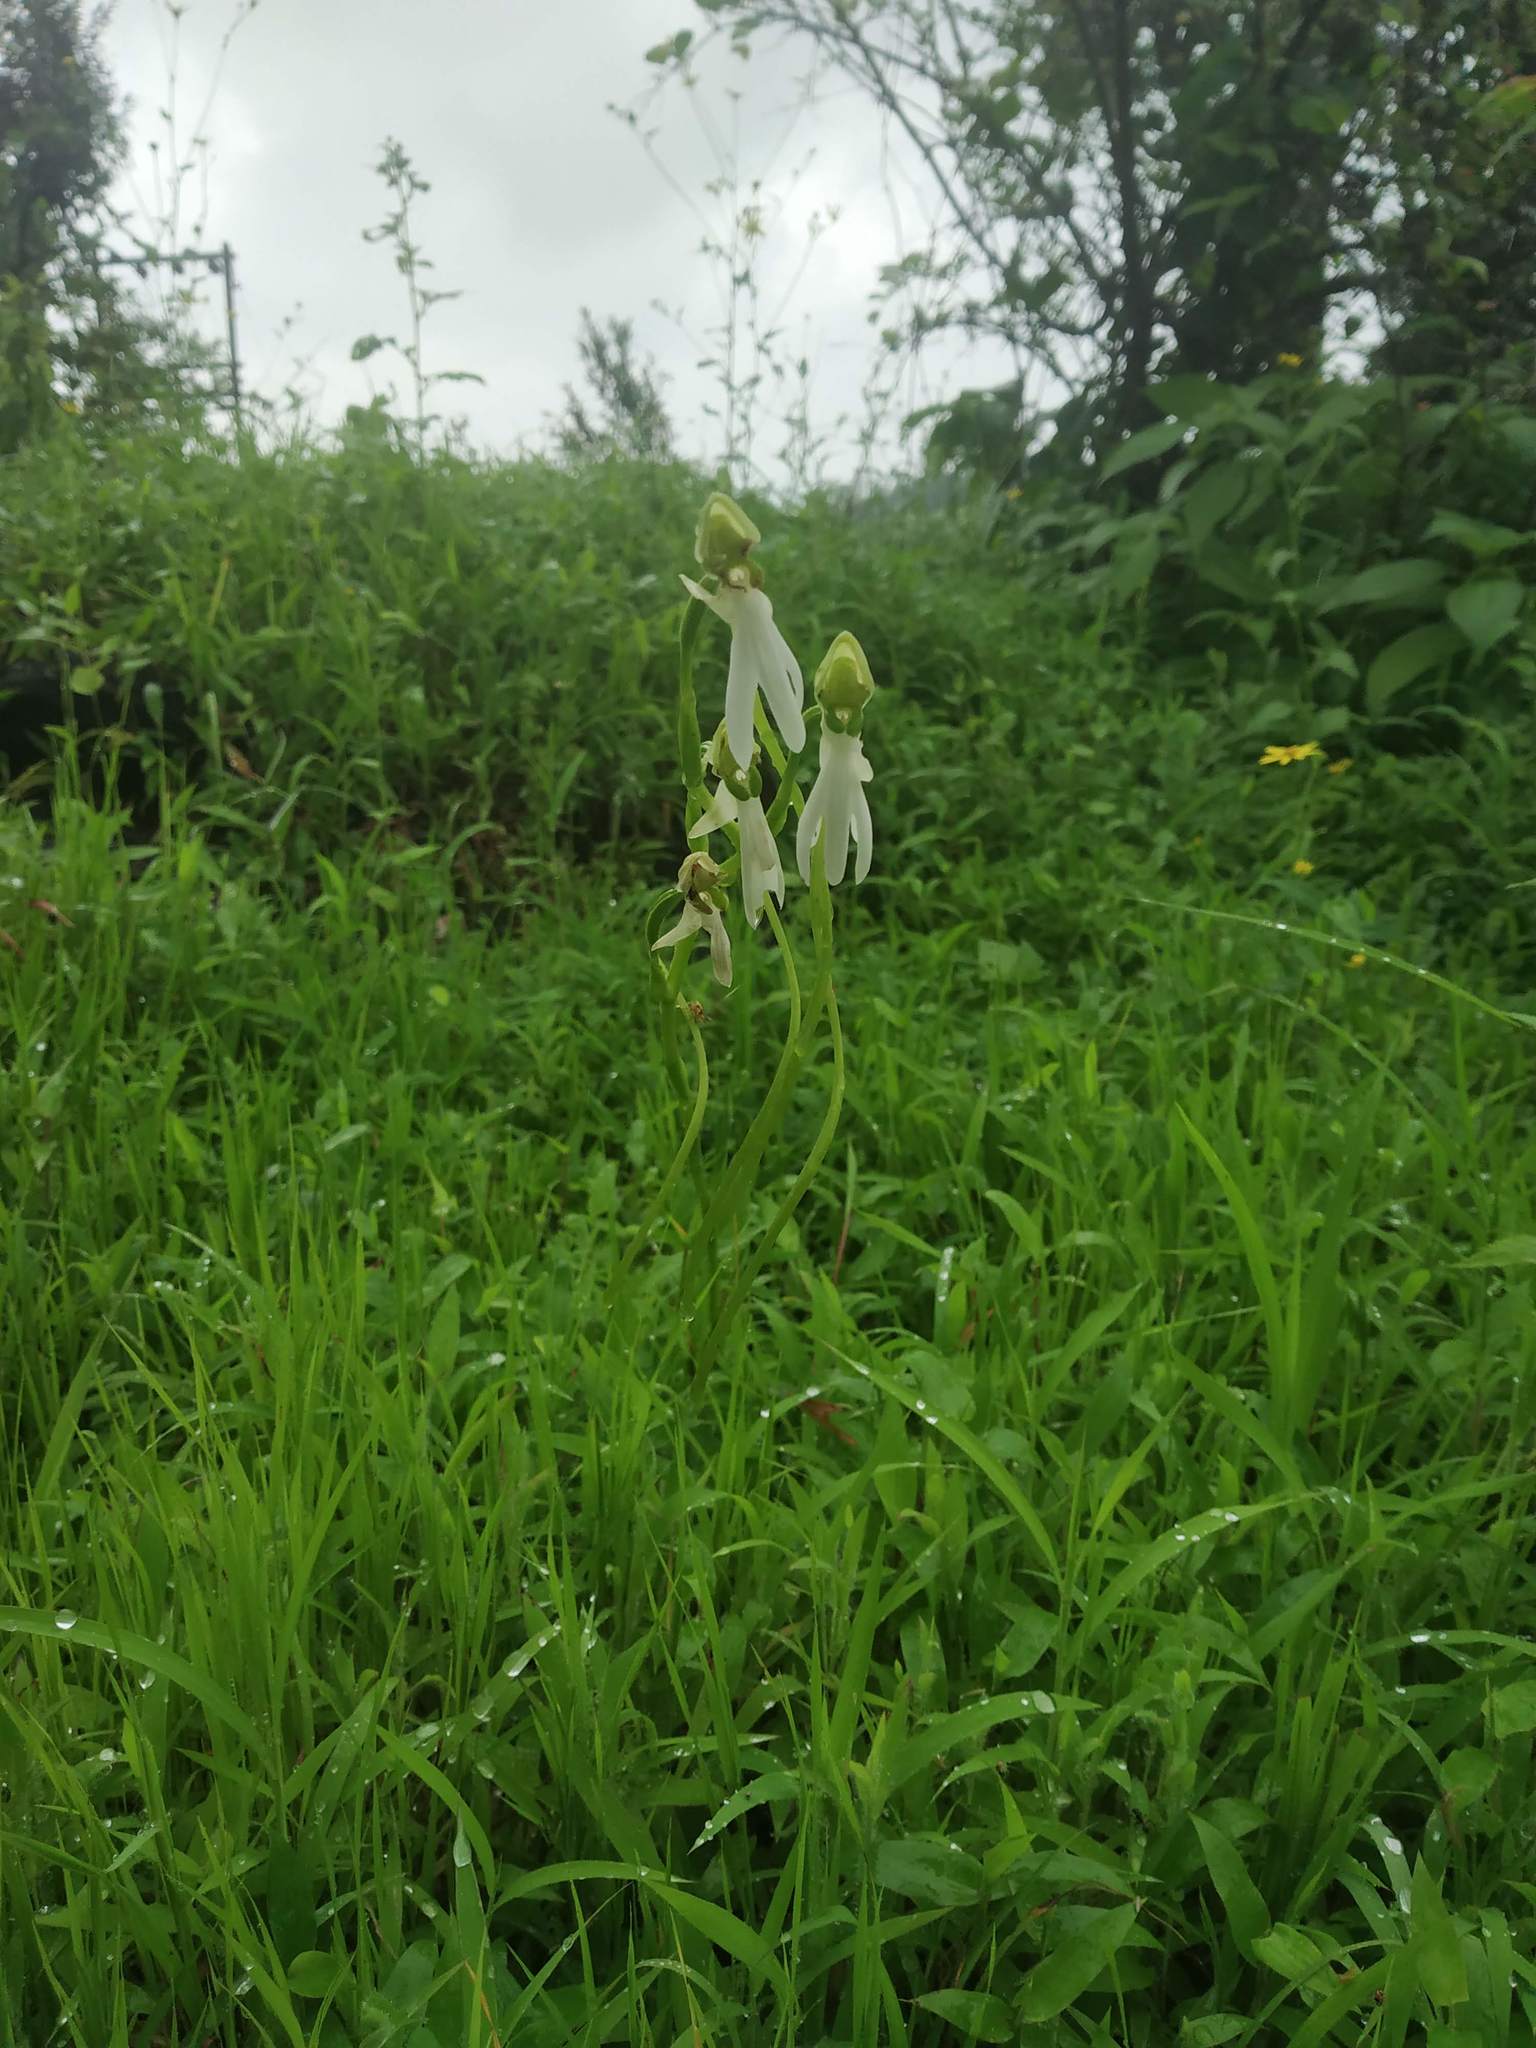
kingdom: Plantae
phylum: Tracheophyta
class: Liliopsida
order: Asparagales
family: Orchidaceae
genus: Habenaria
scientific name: Habenaria longicorniculata
